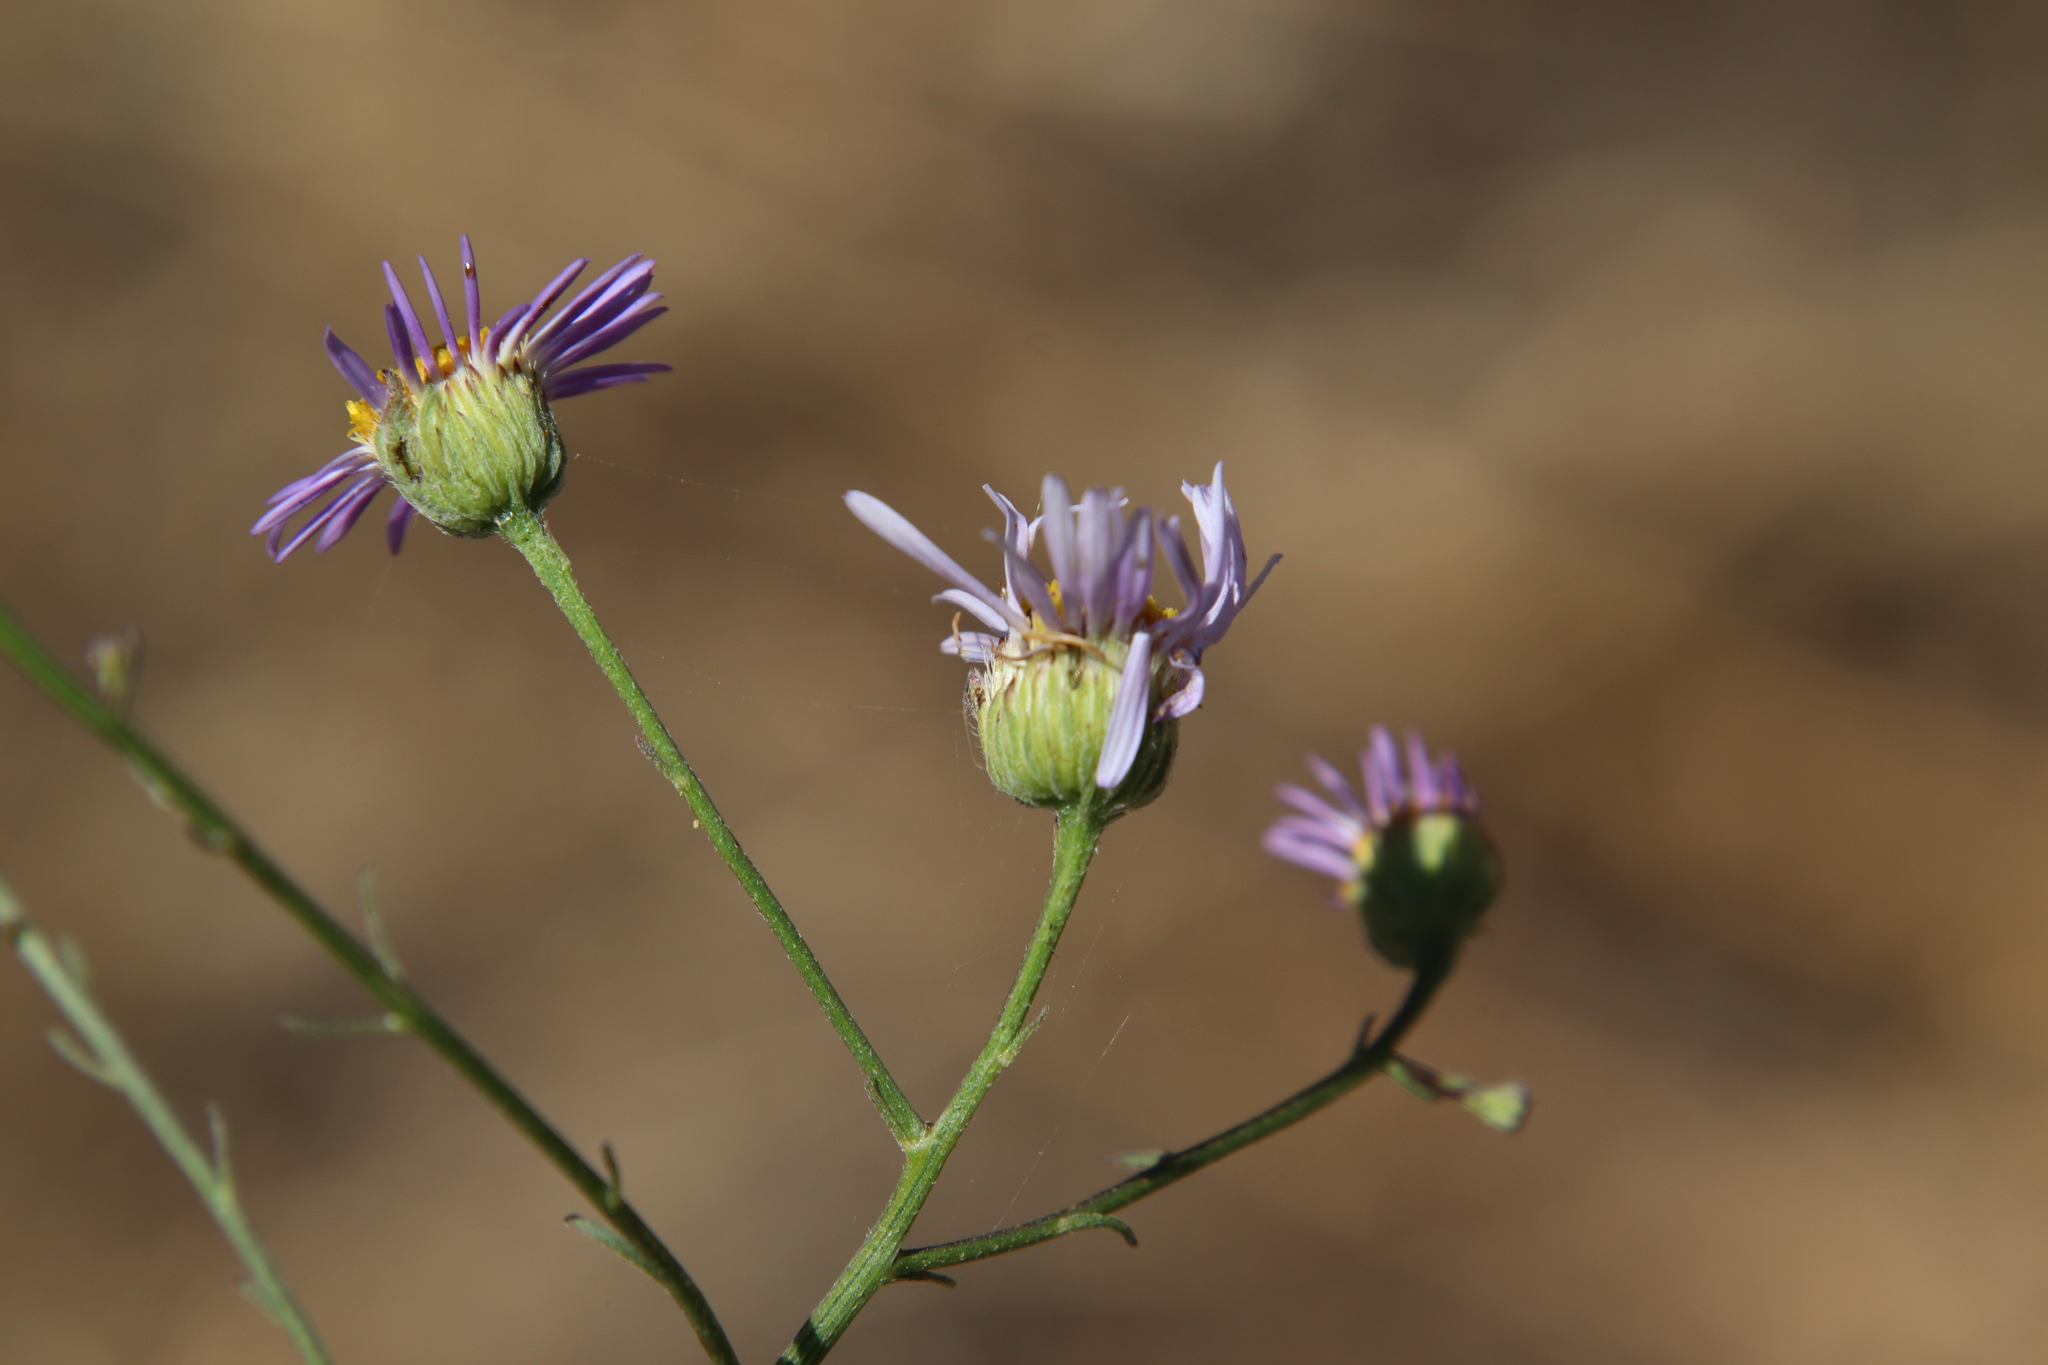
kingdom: Plantae
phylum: Tracheophyta
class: Magnoliopsida
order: Asterales
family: Asteraceae
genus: Erigeron
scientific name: Erigeron foliosus
